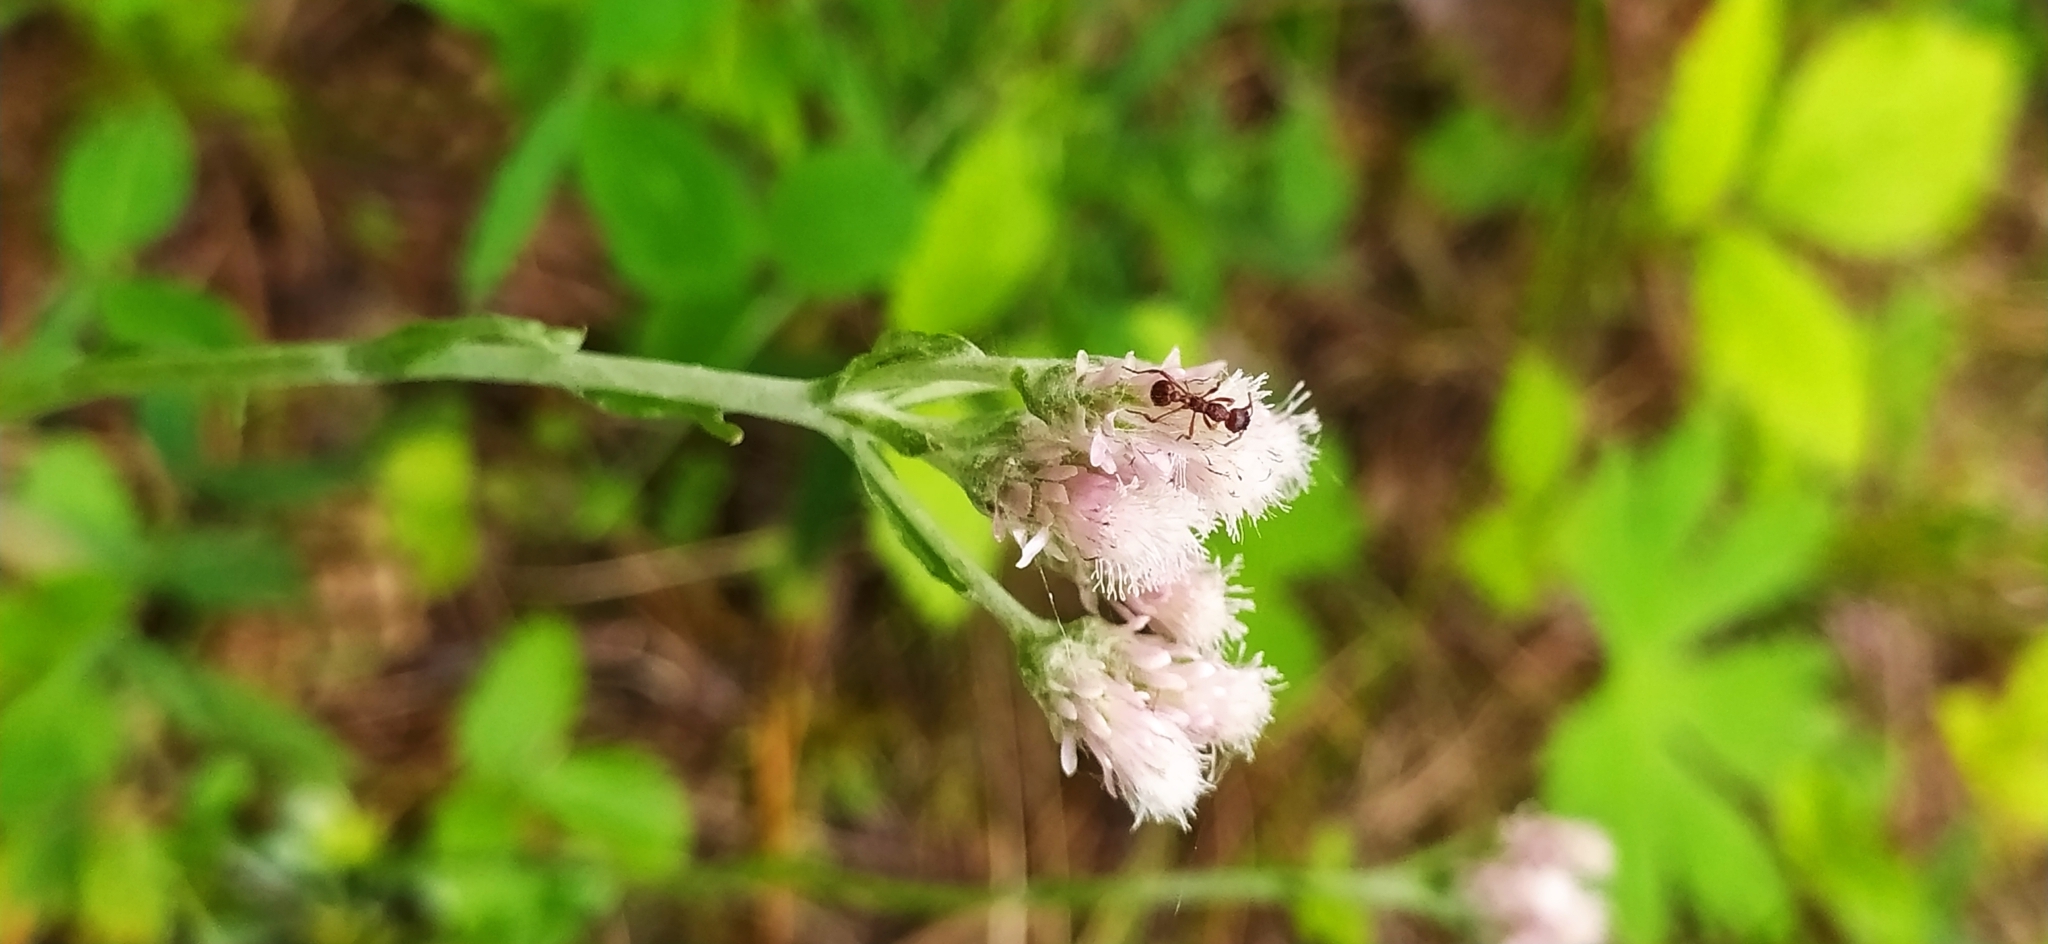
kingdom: Plantae
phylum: Tracheophyta
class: Magnoliopsida
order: Asterales
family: Asteraceae
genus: Antennaria
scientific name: Antennaria dioica
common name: Mountain everlasting
